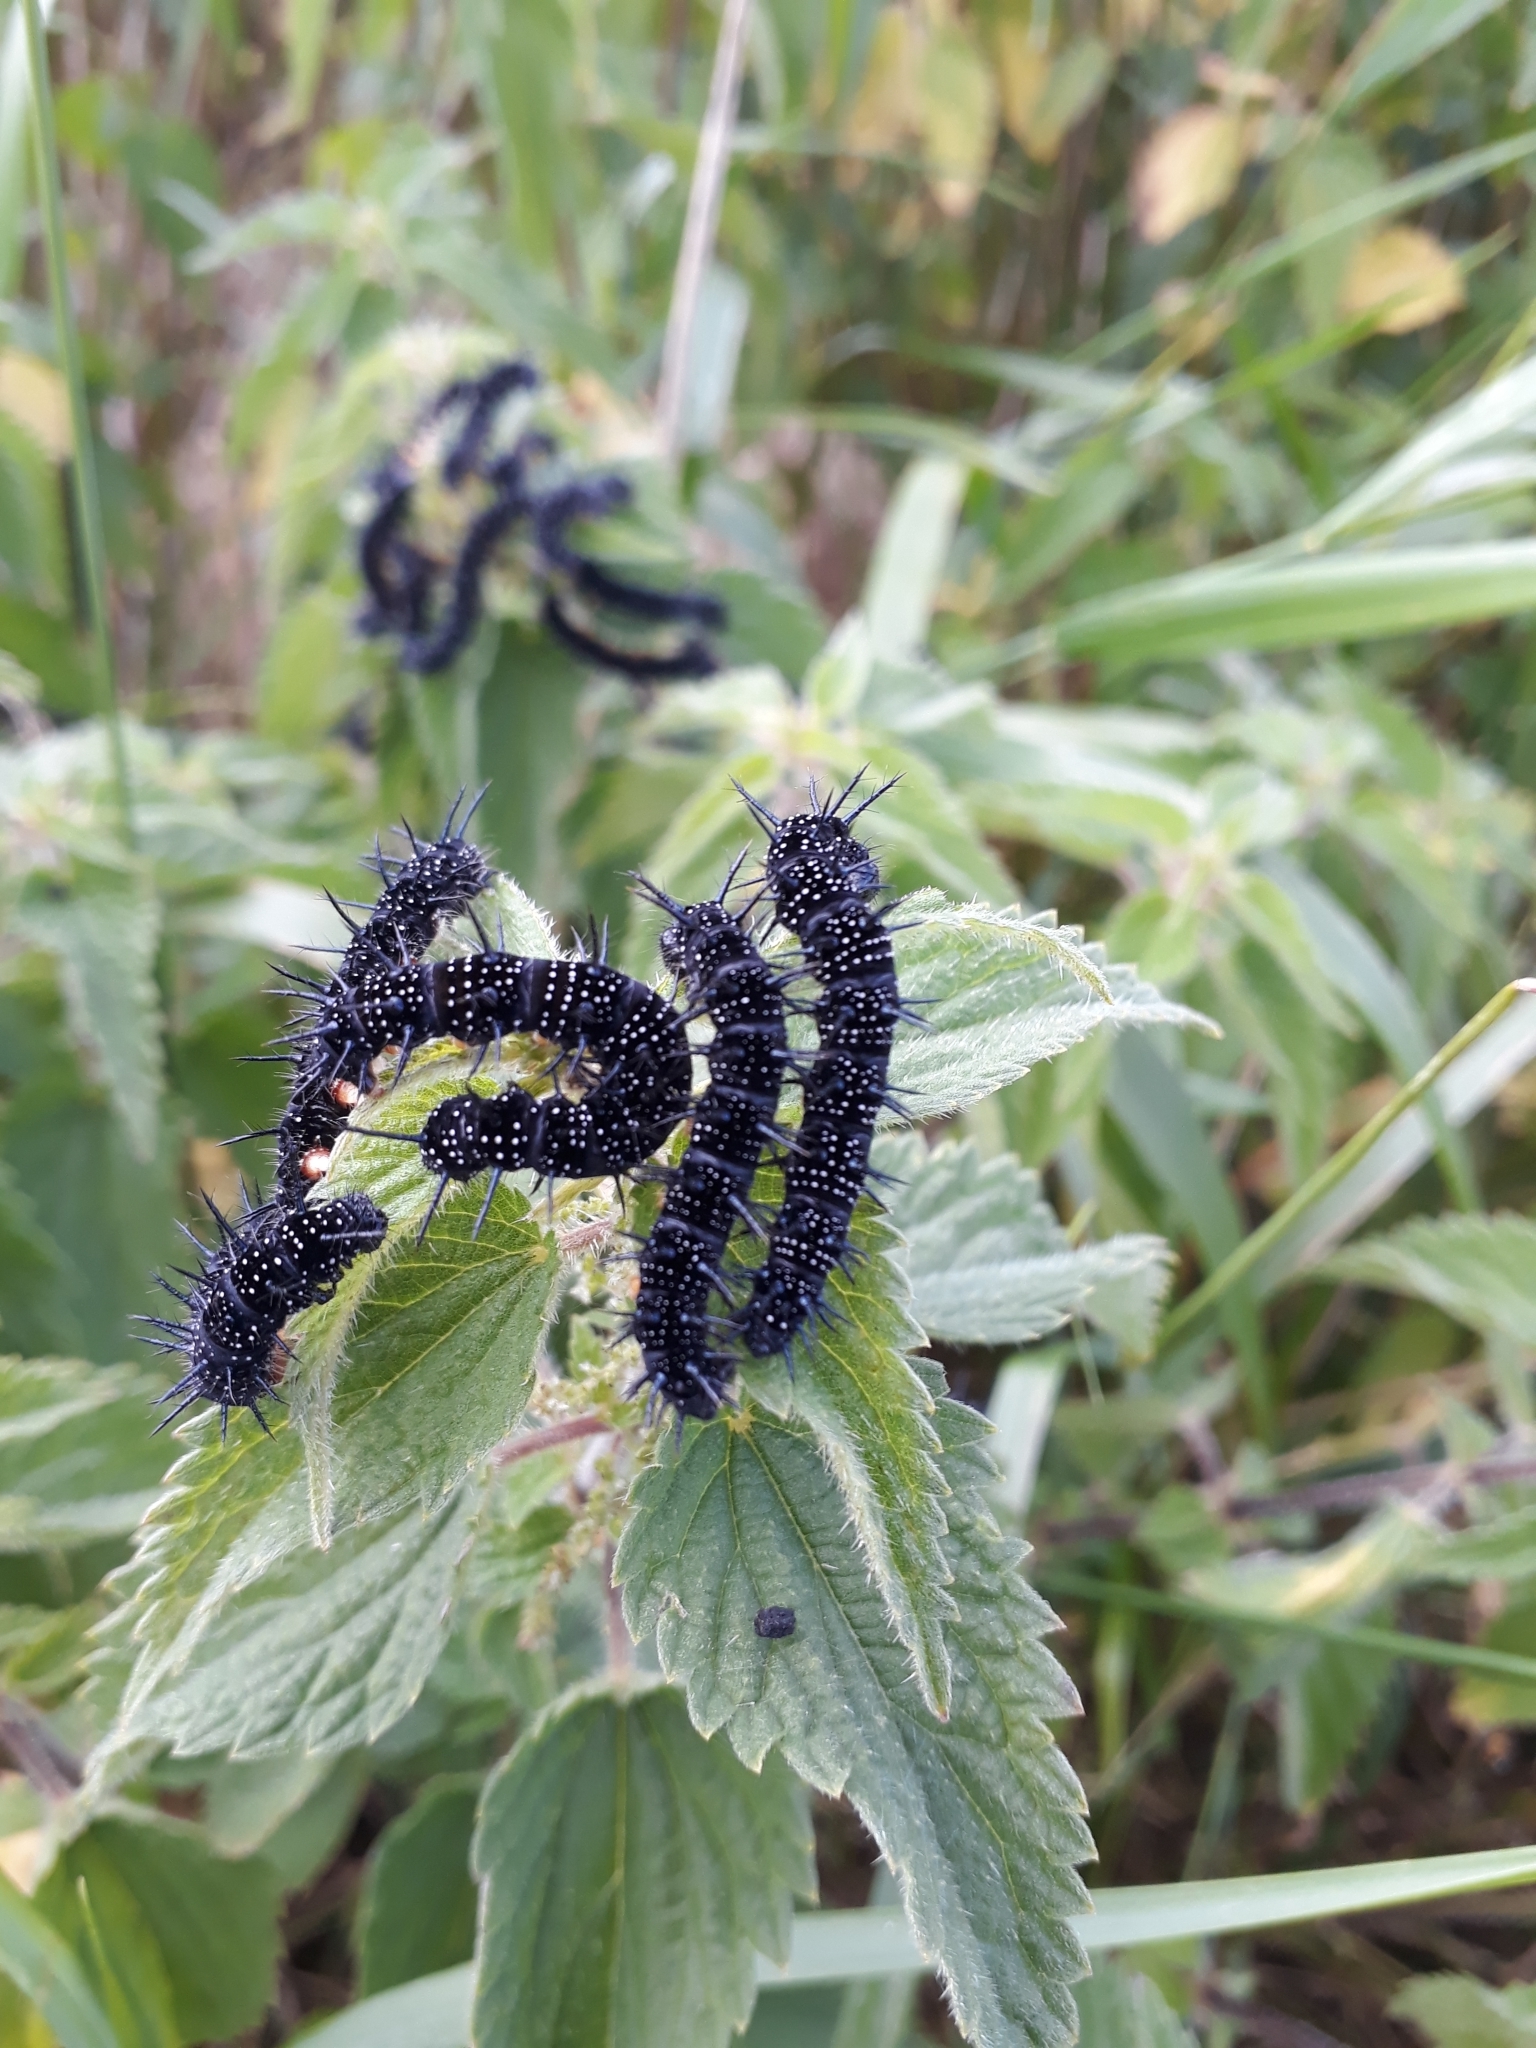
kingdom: Animalia
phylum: Arthropoda
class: Insecta
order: Lepidoptera
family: Nymphalidae
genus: Aglais
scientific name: Aglais io
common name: Peacock
